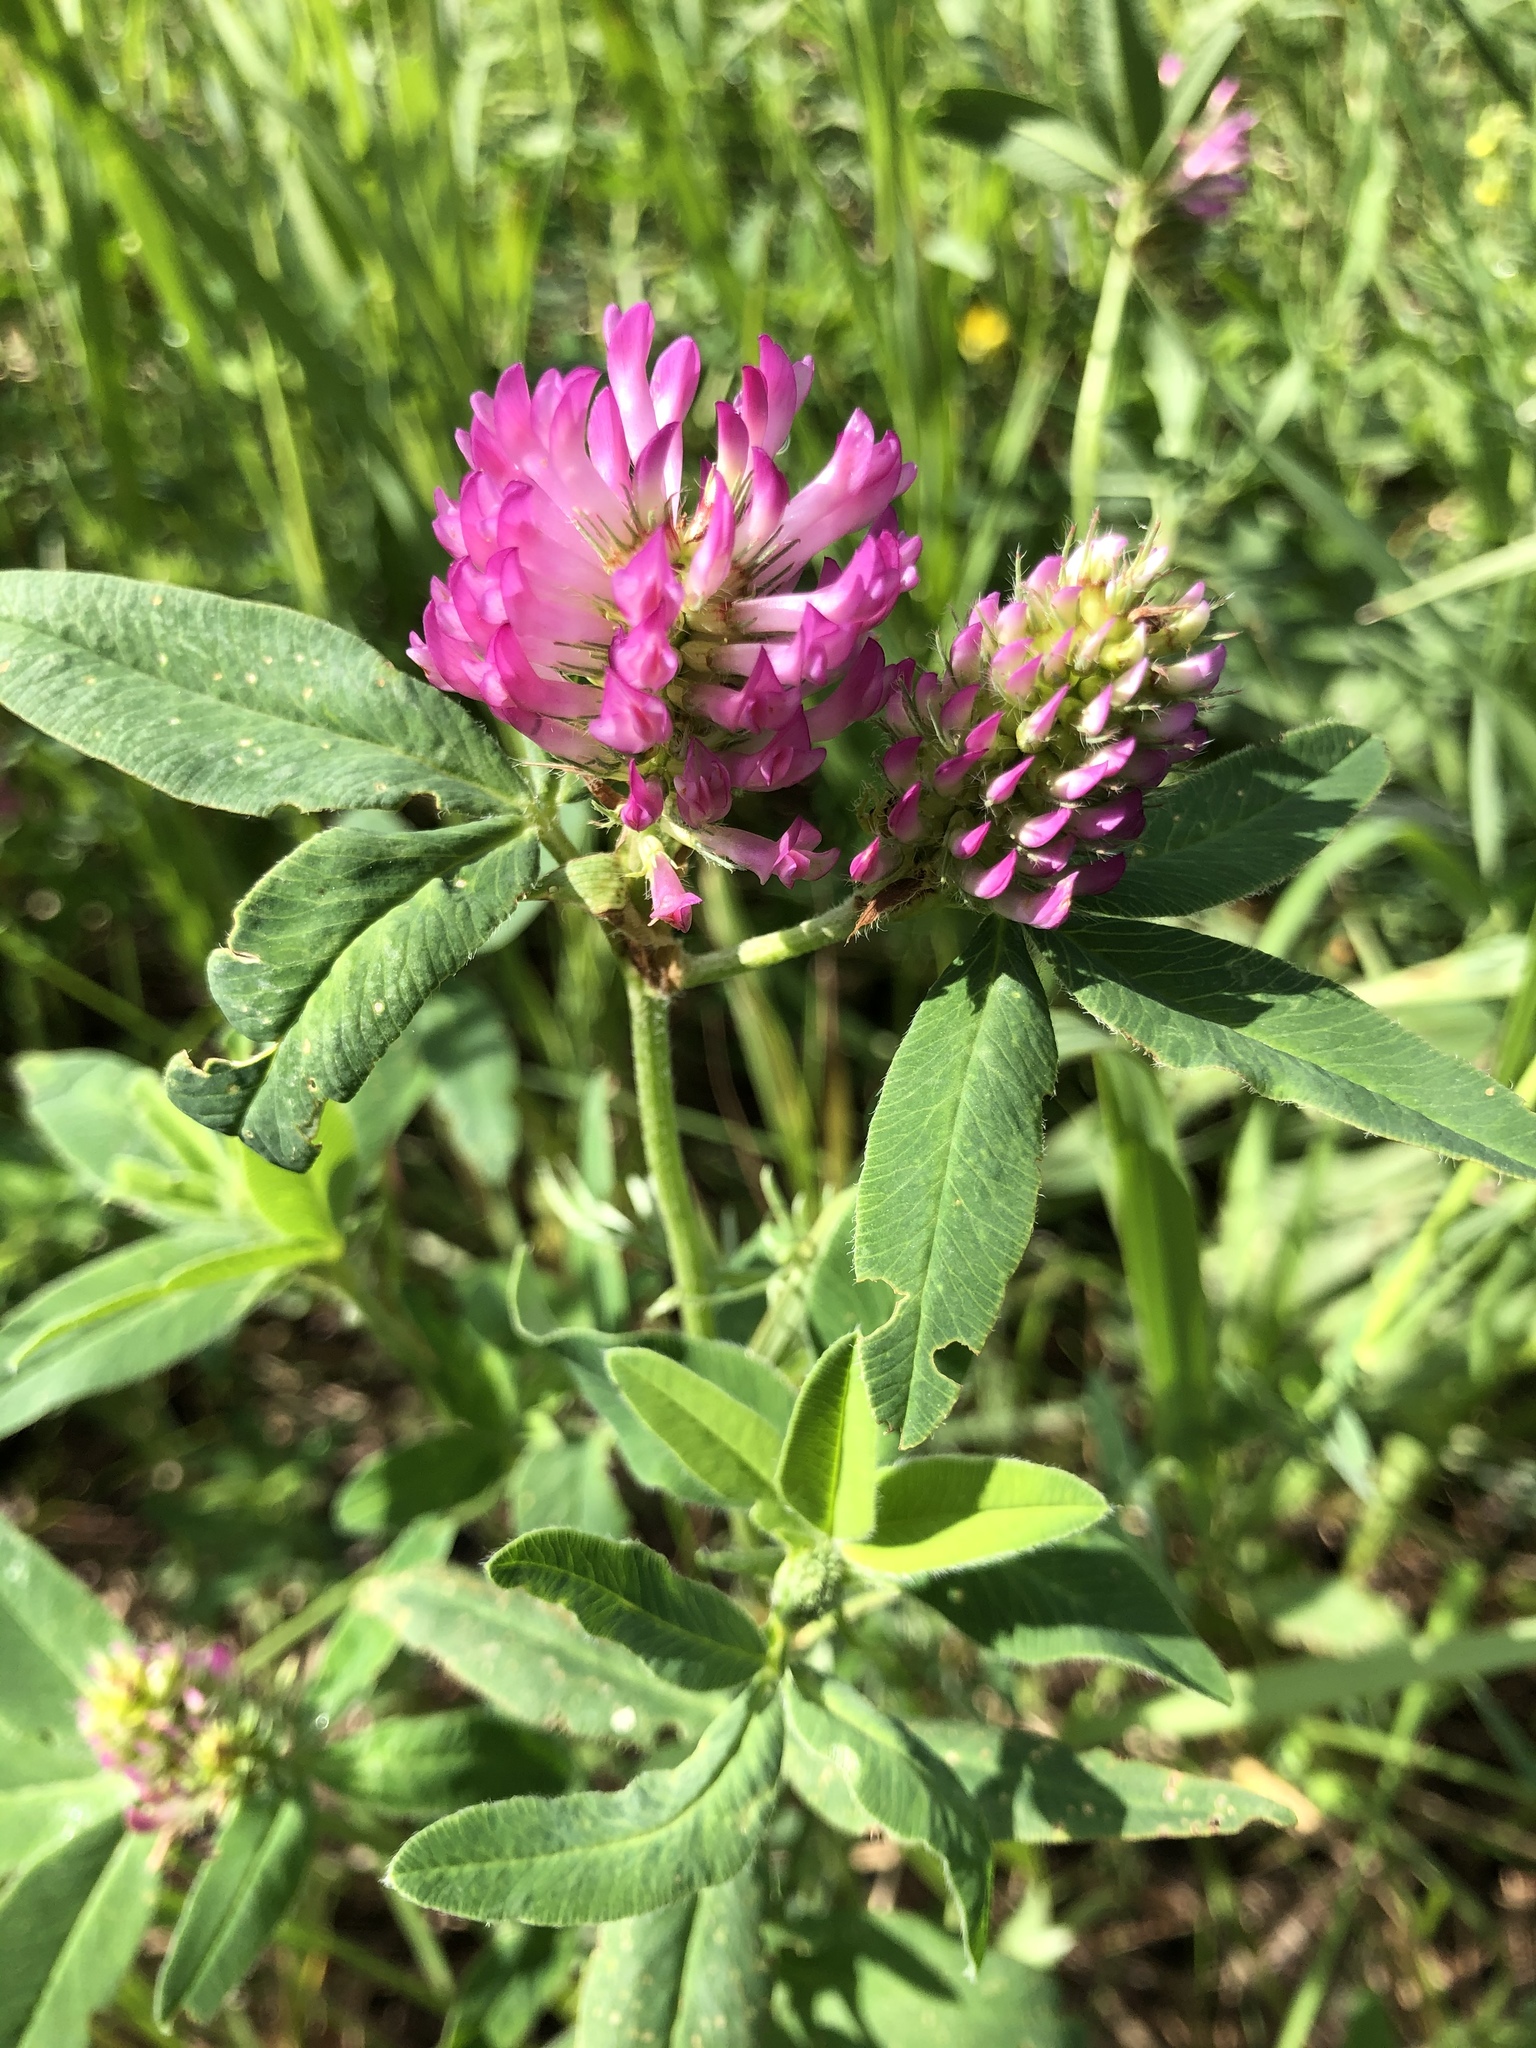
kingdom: Plantae
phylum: Tracheophyta
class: Magnoliopsida
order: Fabales
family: Fabaceae
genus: Trifolium
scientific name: Trifolium medium
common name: Zigzag clover
